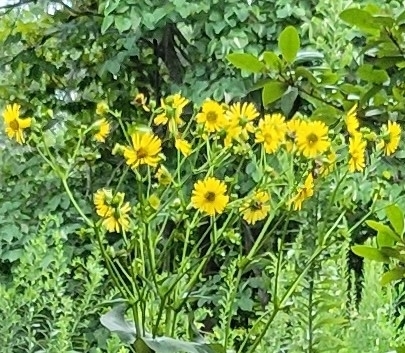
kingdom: Plantae
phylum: Tracheophyta
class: Magnoliopsida
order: Asterales
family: Asteraceae
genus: Silphium
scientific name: Silphium perfoliatum
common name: Cup-plant
